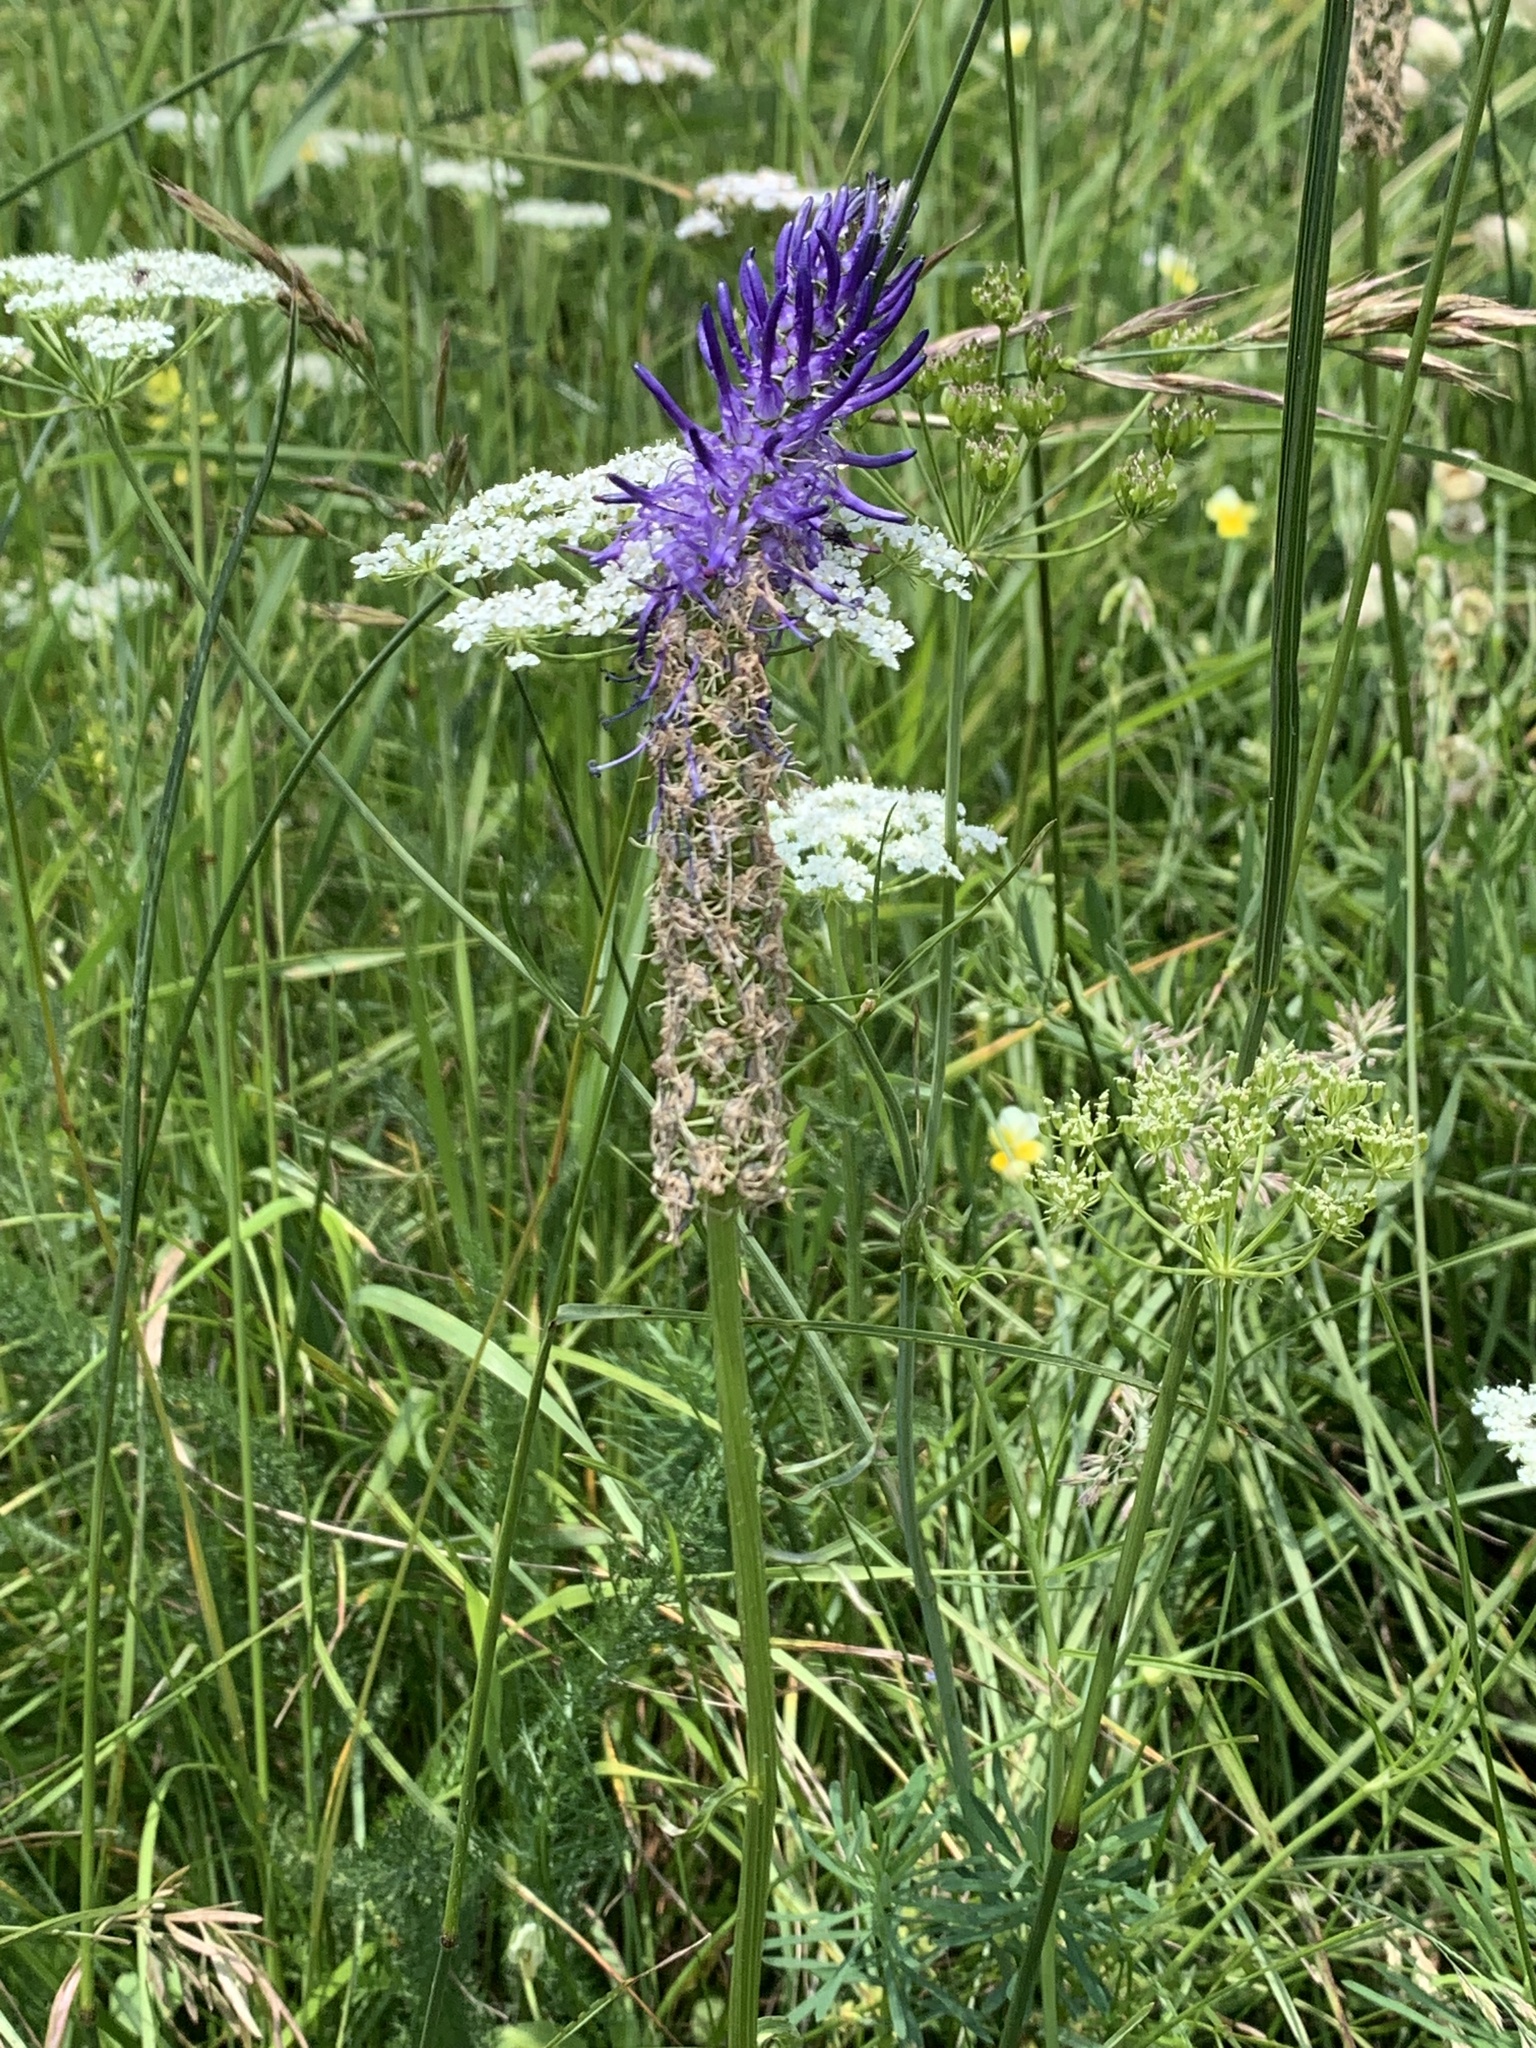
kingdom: Plantae
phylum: Tracheophyta
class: Magnoliopsida
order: Asterales
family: Campanulaceae
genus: Phyteuma
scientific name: Phyteuma betonicifolium
